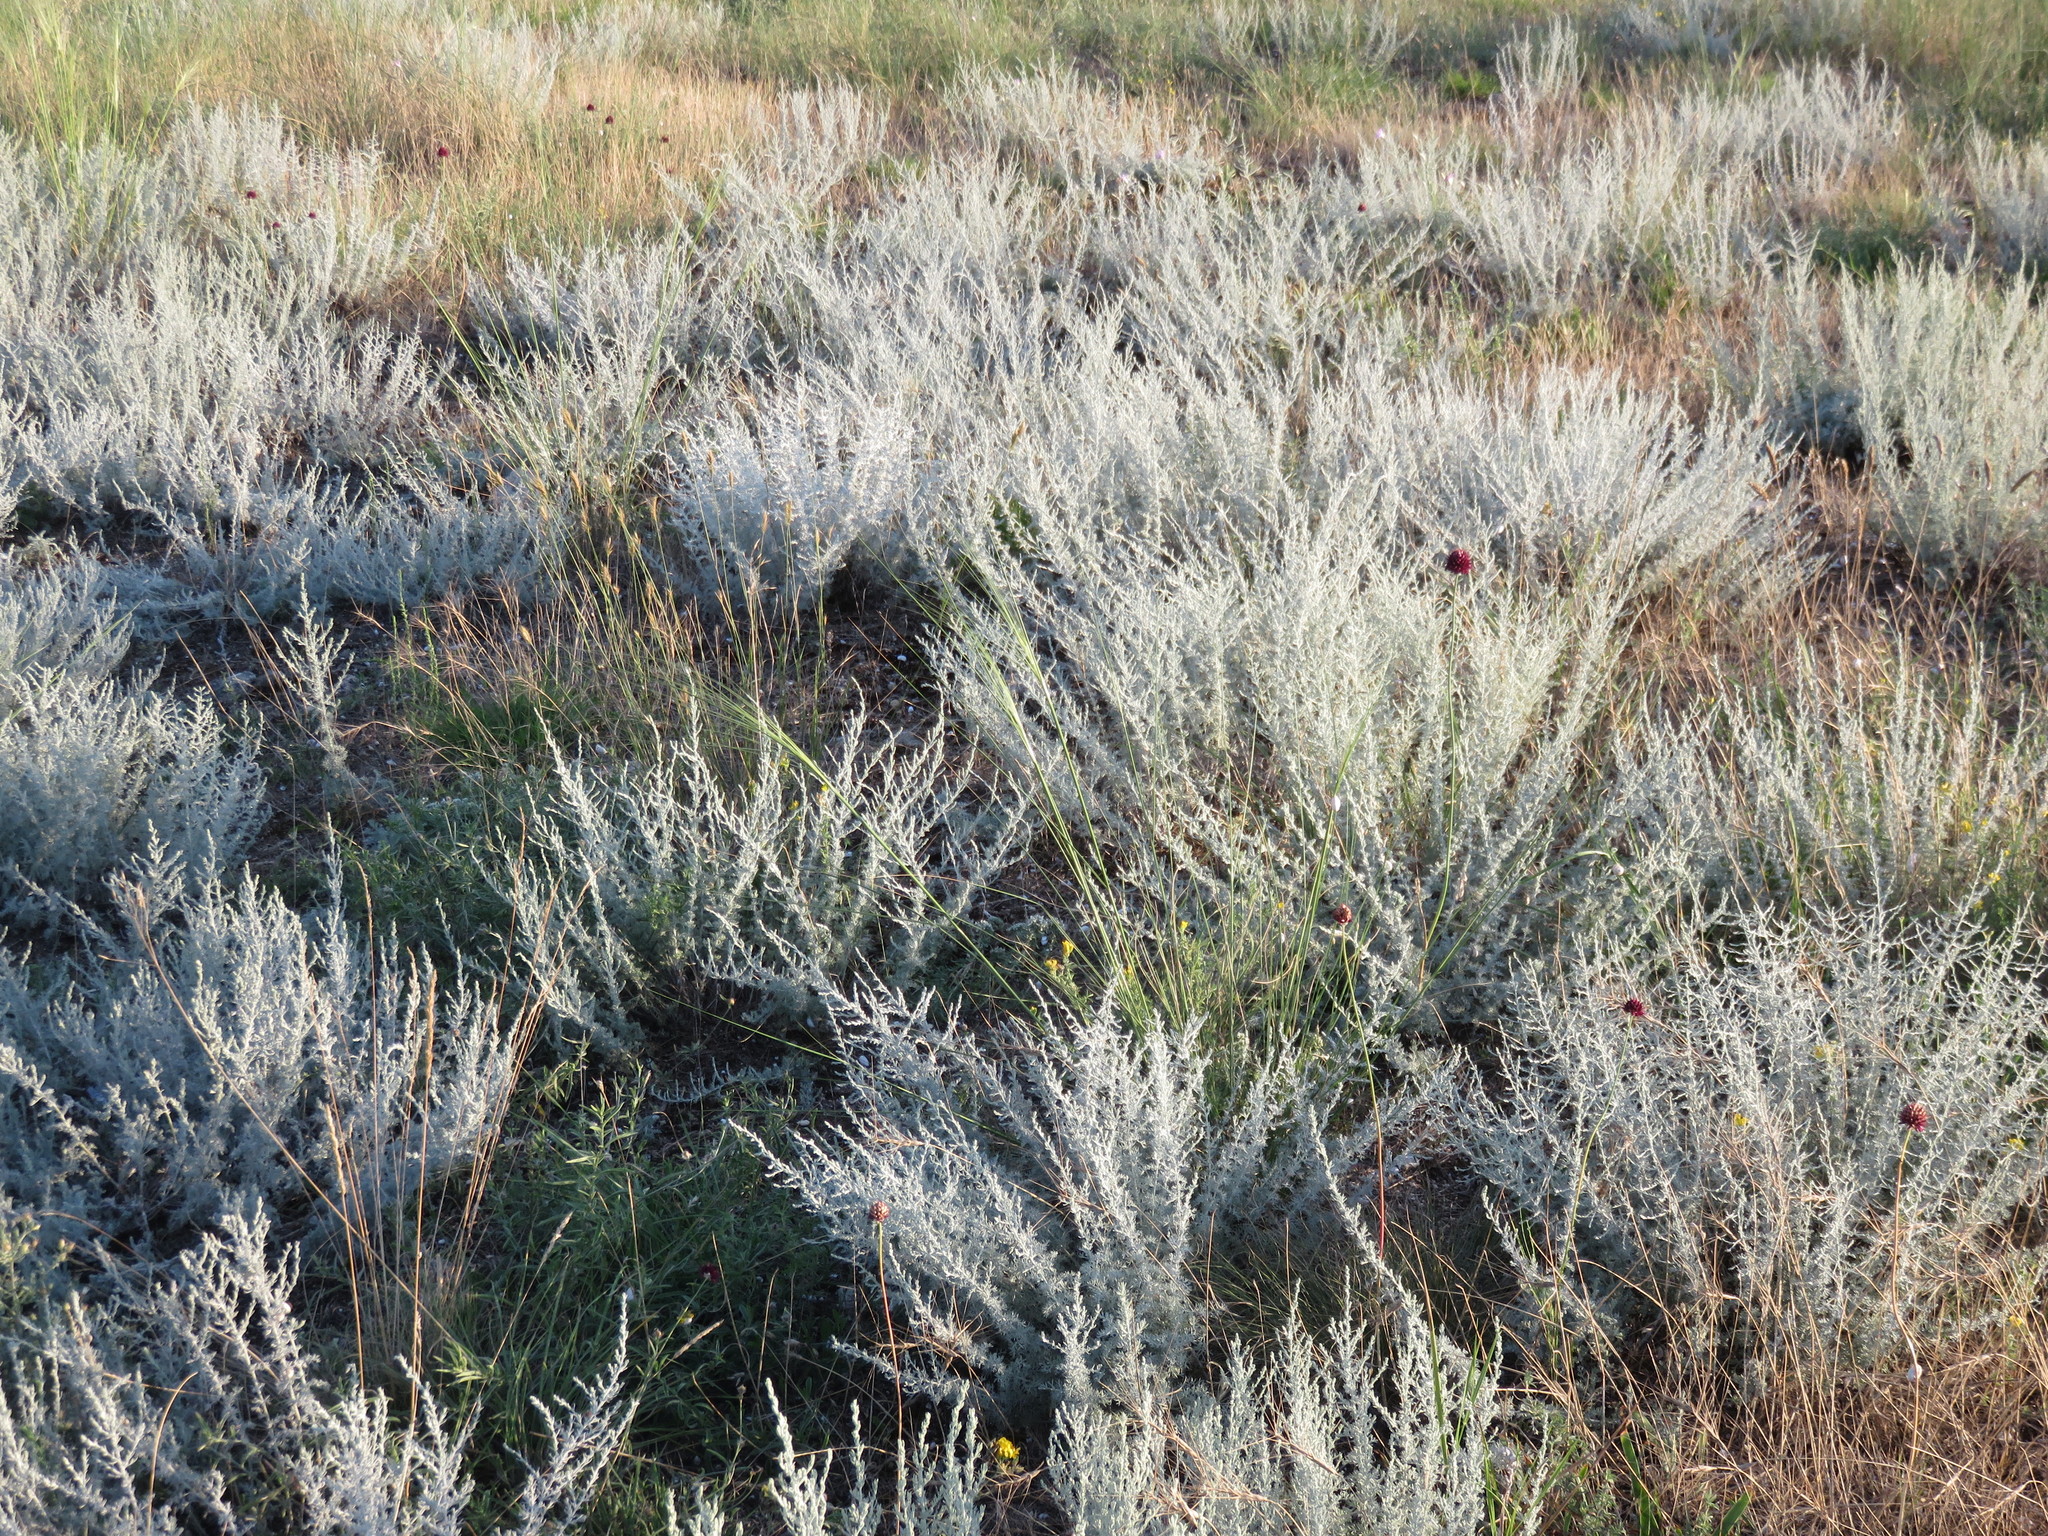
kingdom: Plantae
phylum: Tracheophyta
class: Magnoliopsida
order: Asterales
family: Asteraceae
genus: Artemisia
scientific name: Artemisia austriaca
